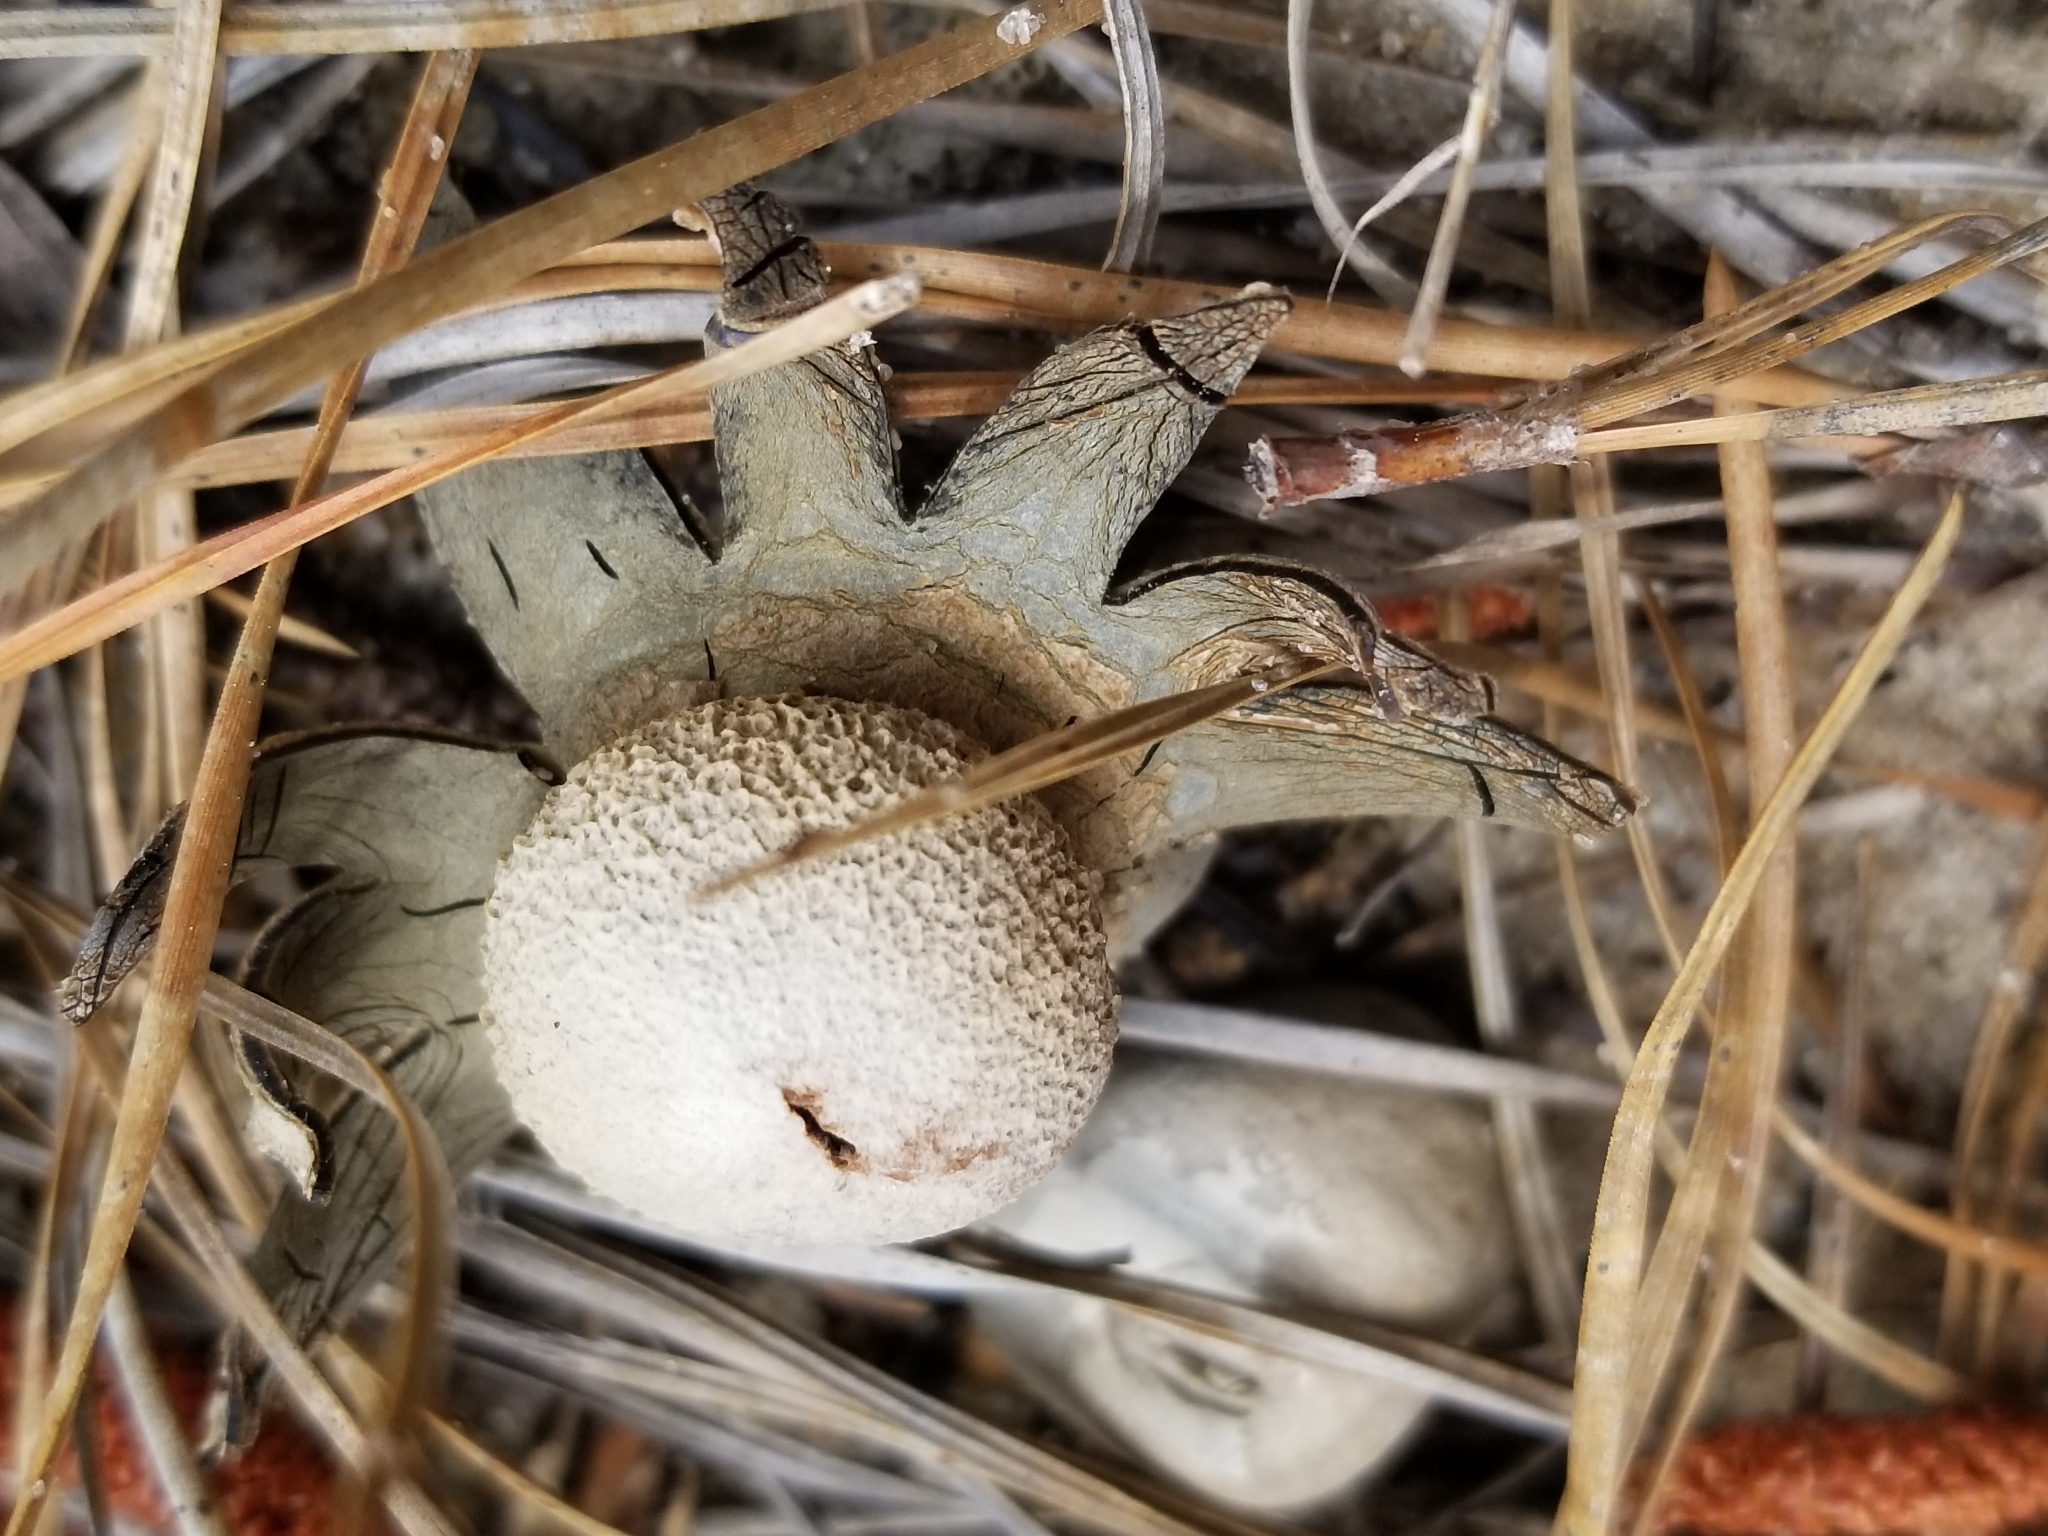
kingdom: Fungi
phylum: Basidiomycota
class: Agaricomycetes
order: Boletales
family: Diplocystidiaceae
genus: Astraeus
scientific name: Astraeus smithii
